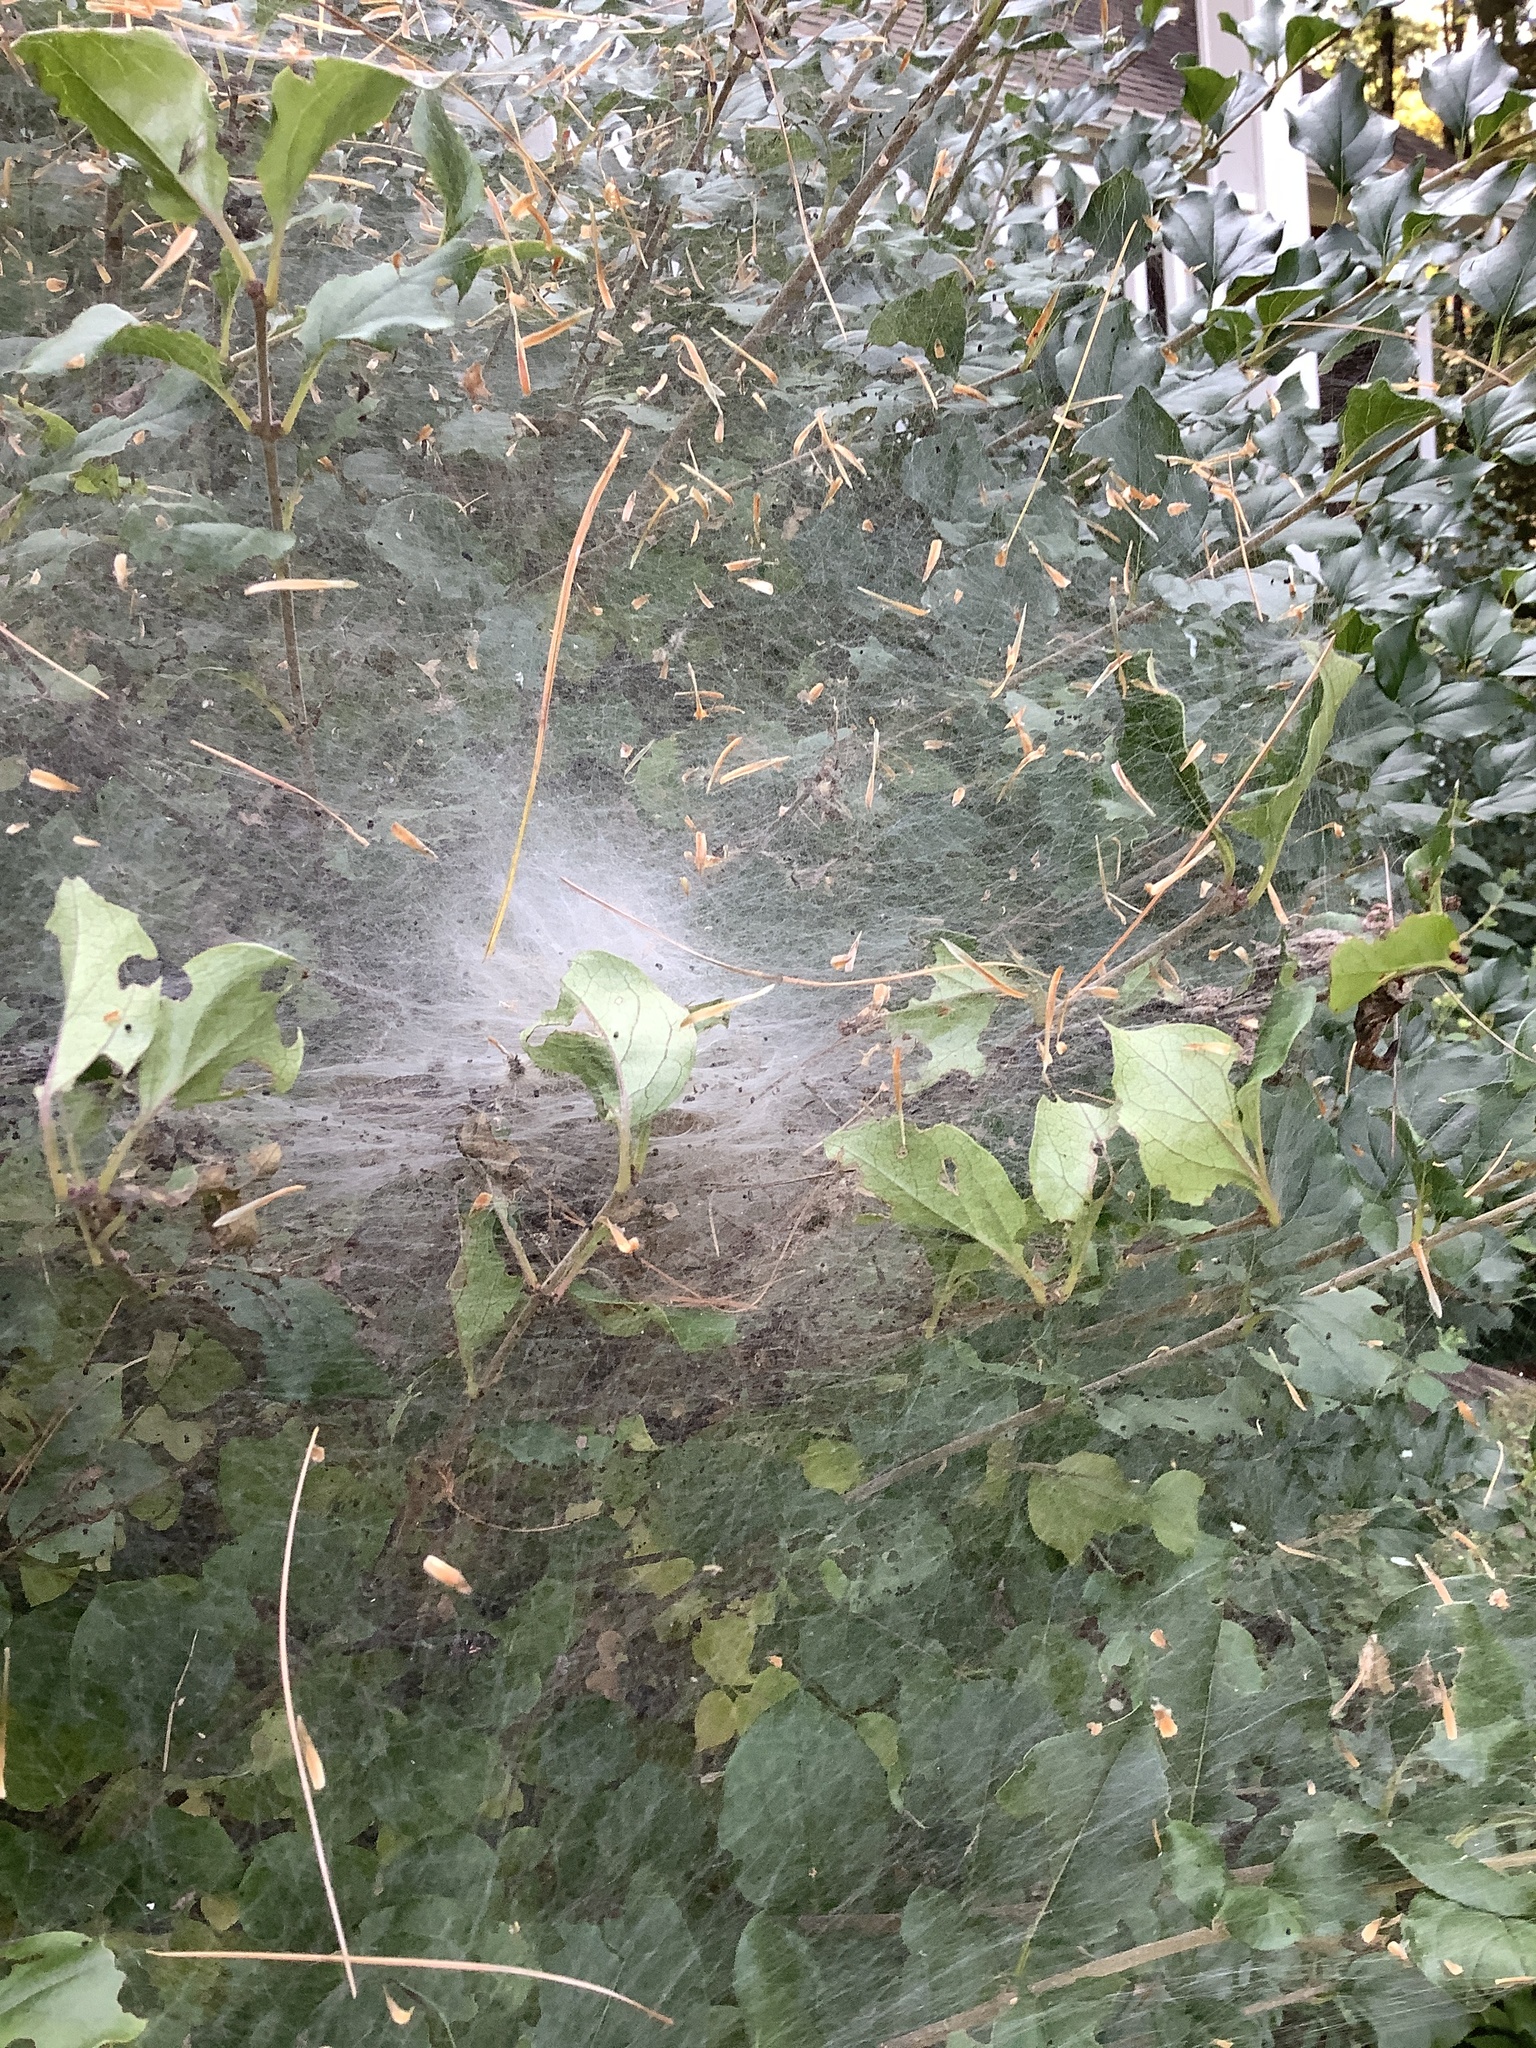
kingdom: Animalia
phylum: Arthropoda
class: Insecta
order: Lepidoptera
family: Erebidae
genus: Hyphantria
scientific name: Hyphantria cunea
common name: American white moth
